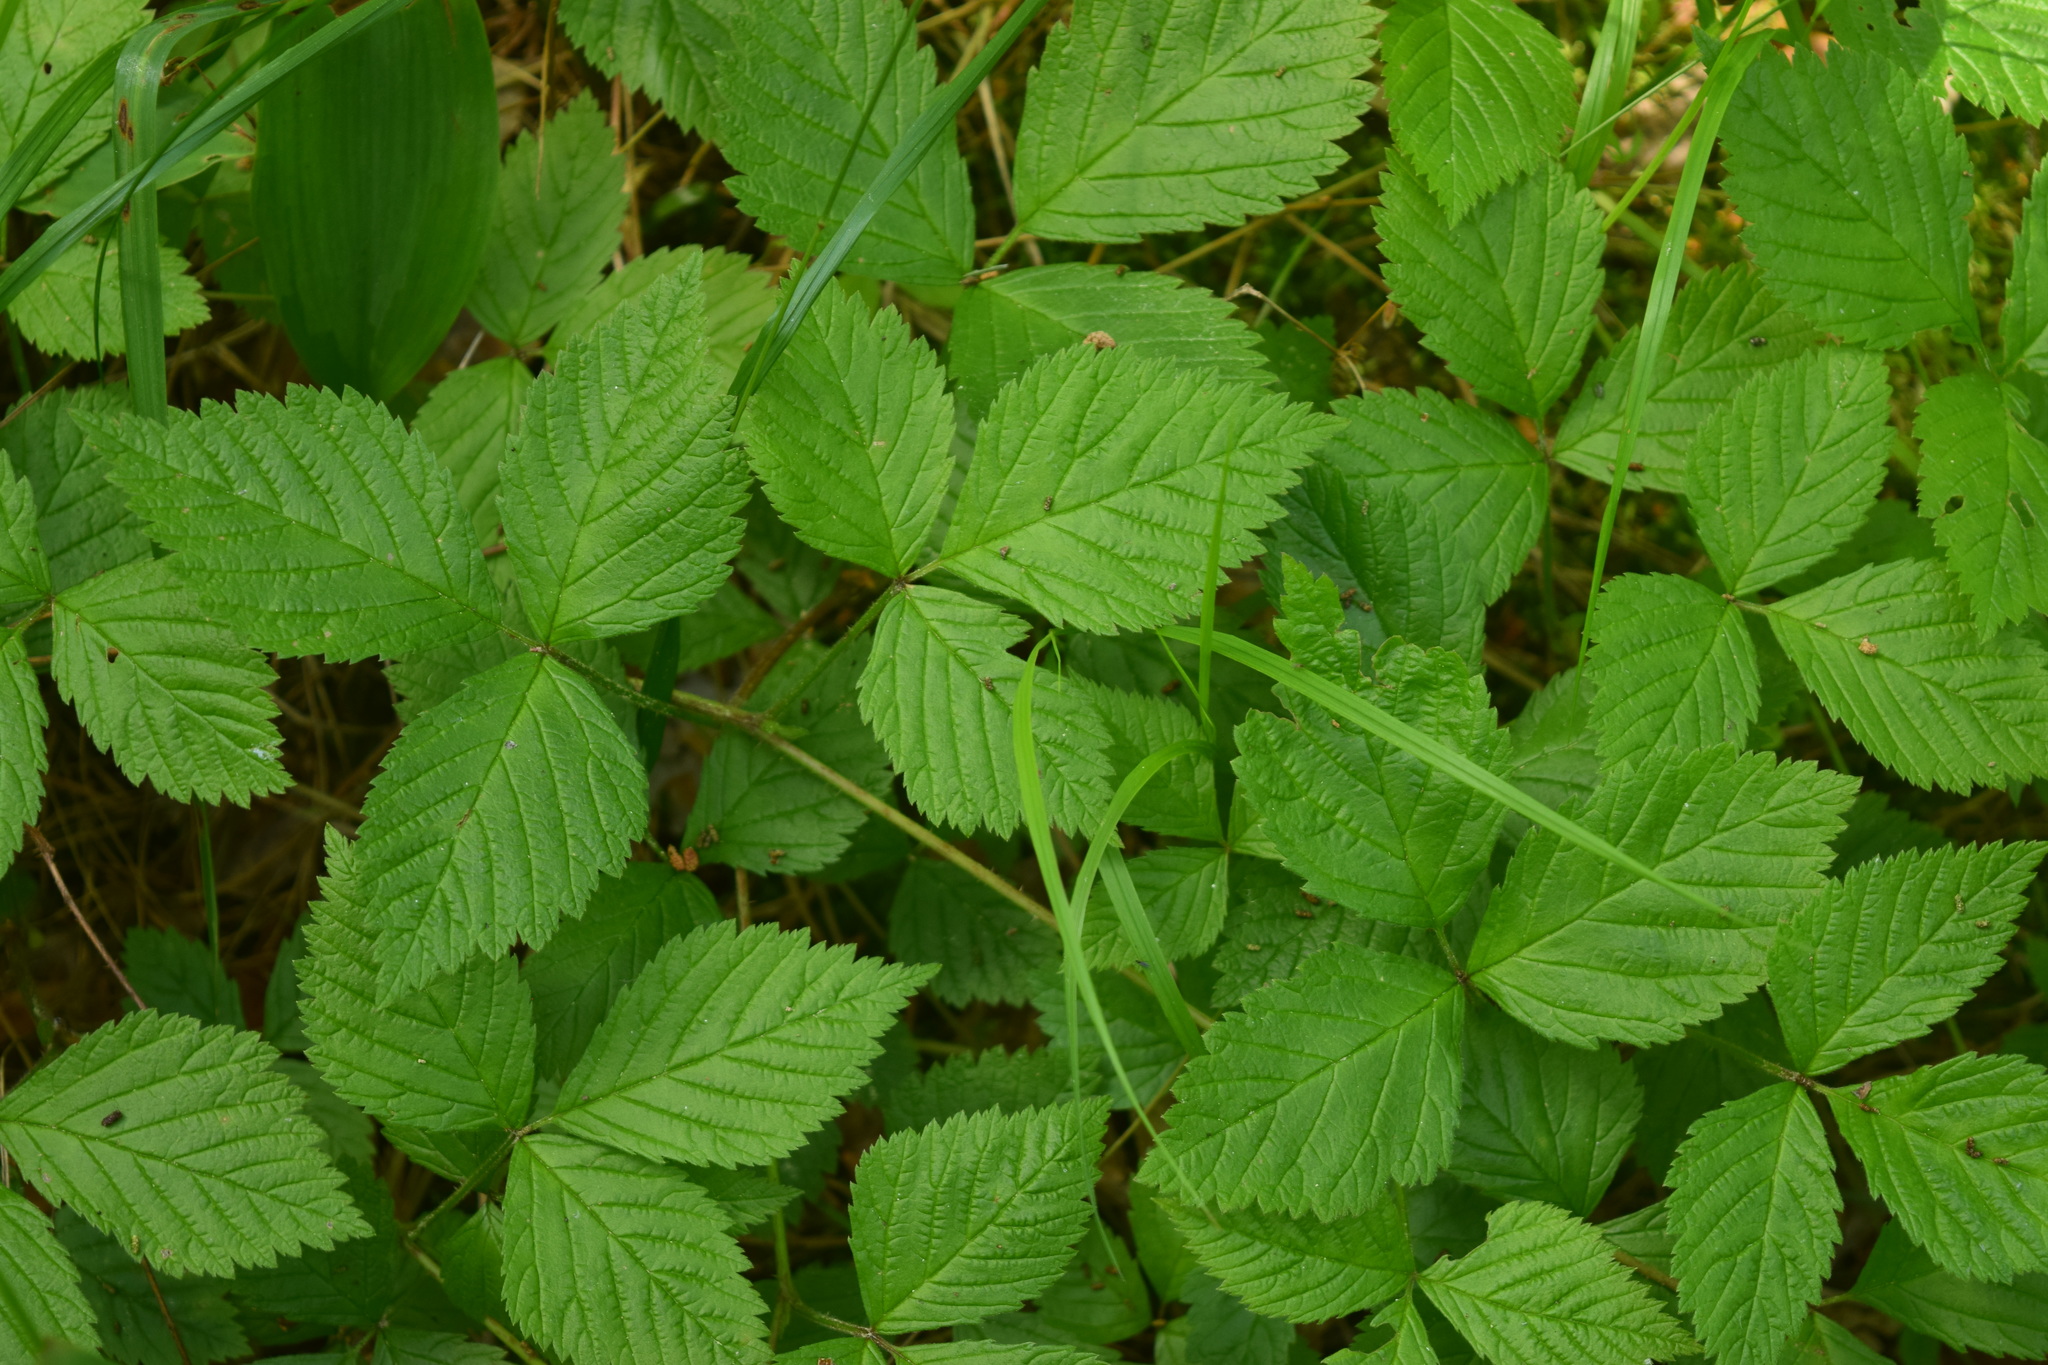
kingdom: Plantae
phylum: Tracheophyta
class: Magnoliopsida
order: Rosales
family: Rosaceae
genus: Rubus
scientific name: Rubus saxatilis
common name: Stone bramble
